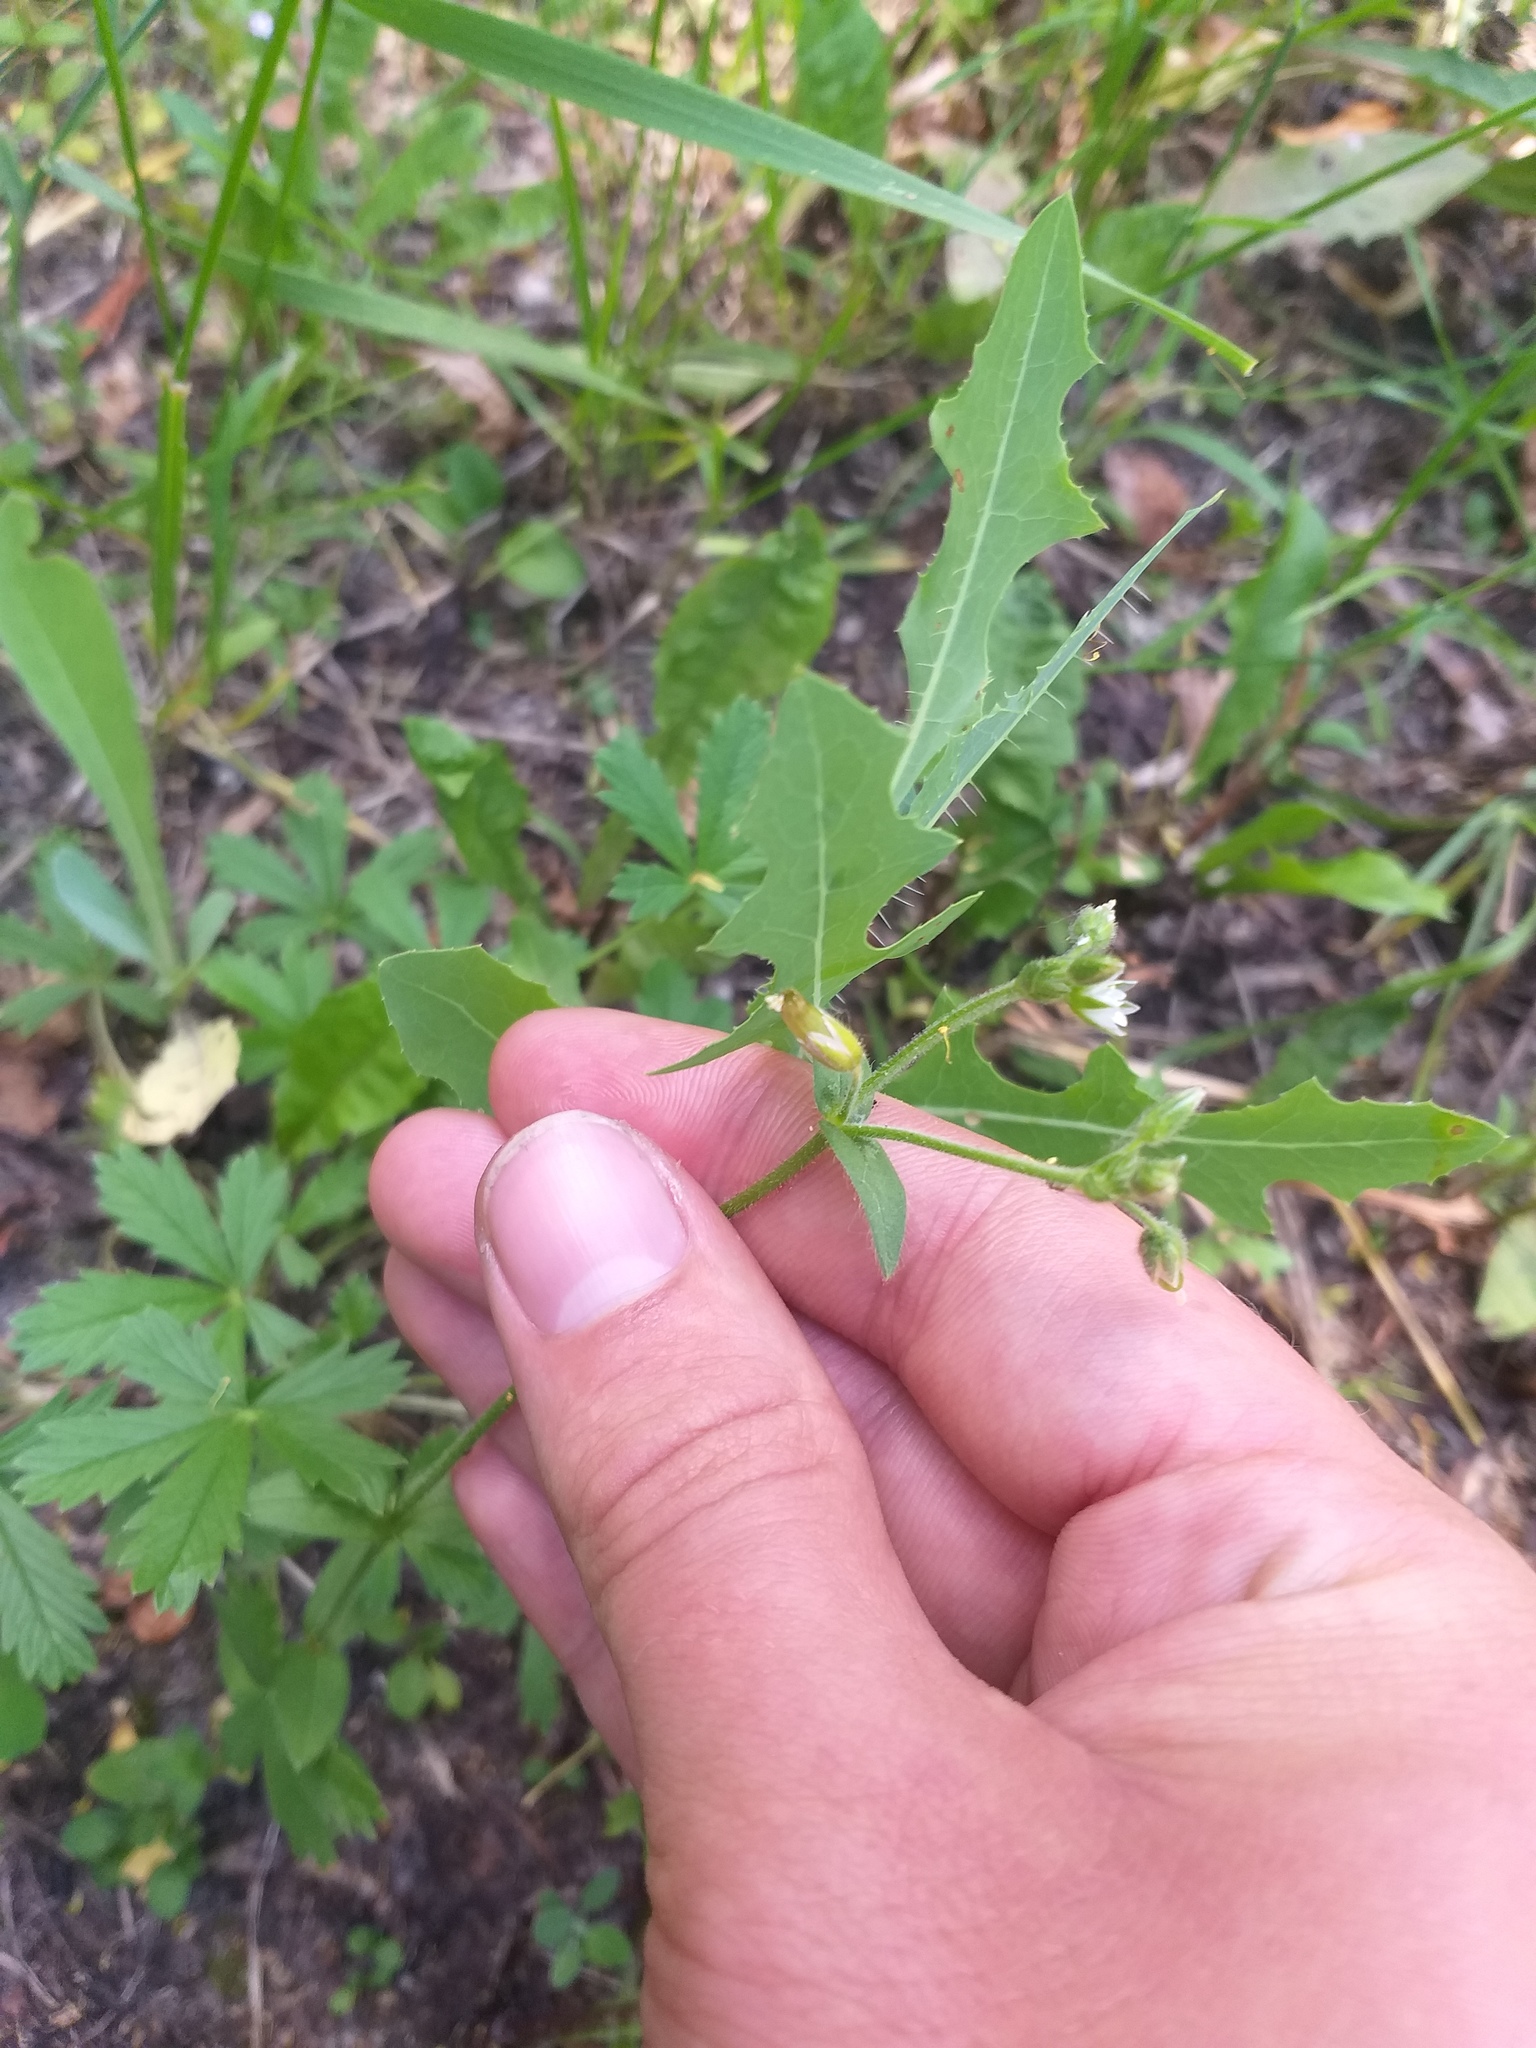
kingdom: Plantae
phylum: Tracheophyta
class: Magnoliopsida
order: Caryophyllales
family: Caryophyllaceae
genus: Cerastium
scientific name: Cerastium holosteoides
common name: Big chickweed
